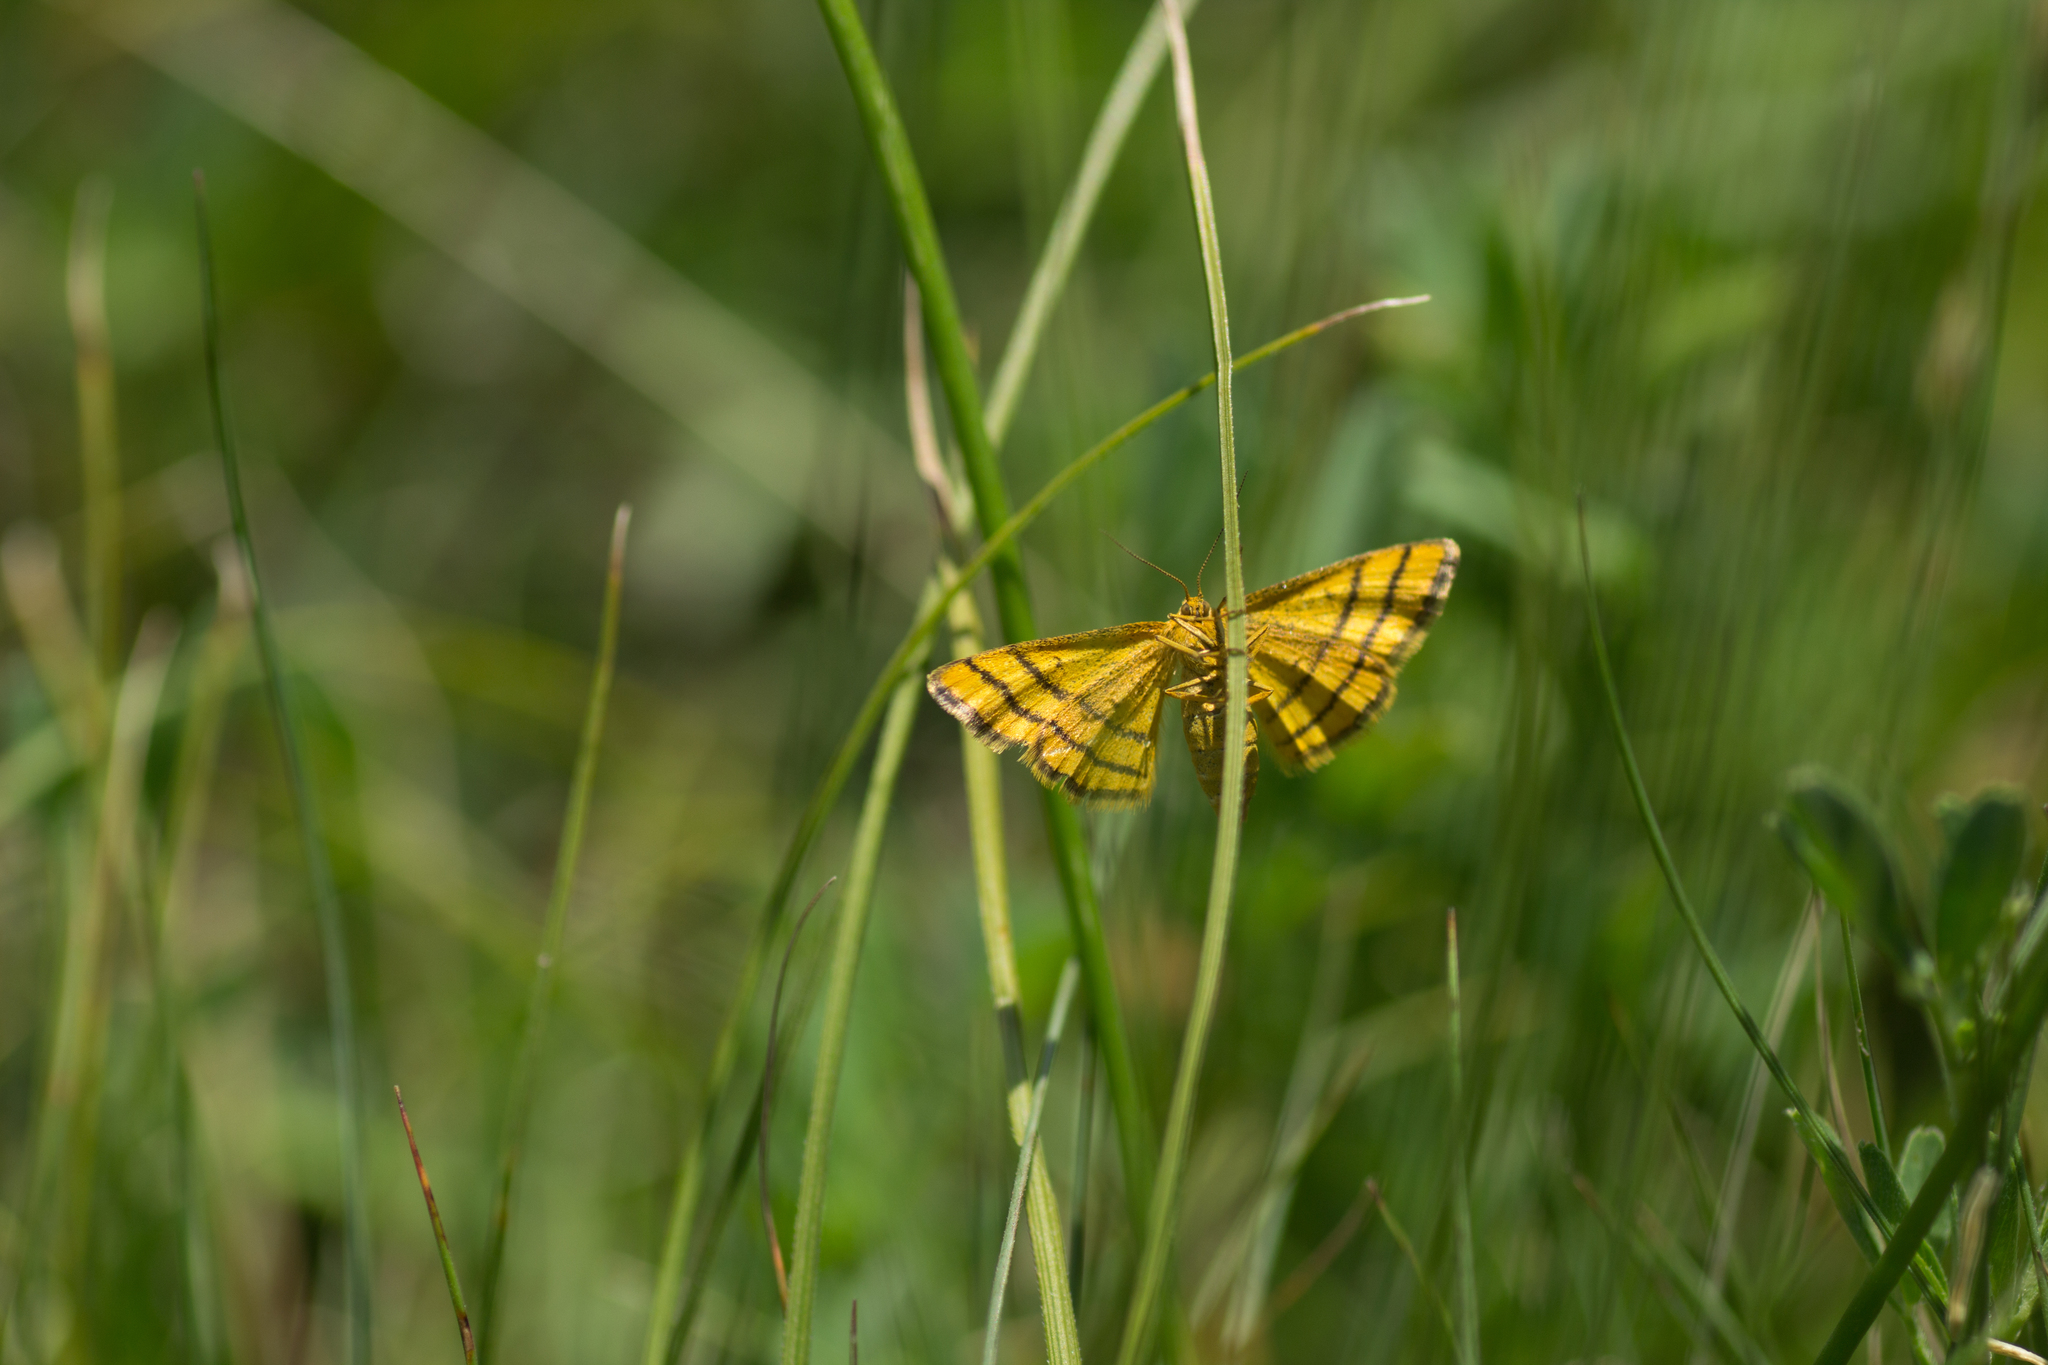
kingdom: Animalia
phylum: Arthropoda
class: Insecta
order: Lepidoptera
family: Geometridae
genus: Idaea
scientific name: Idaea aureolaria
